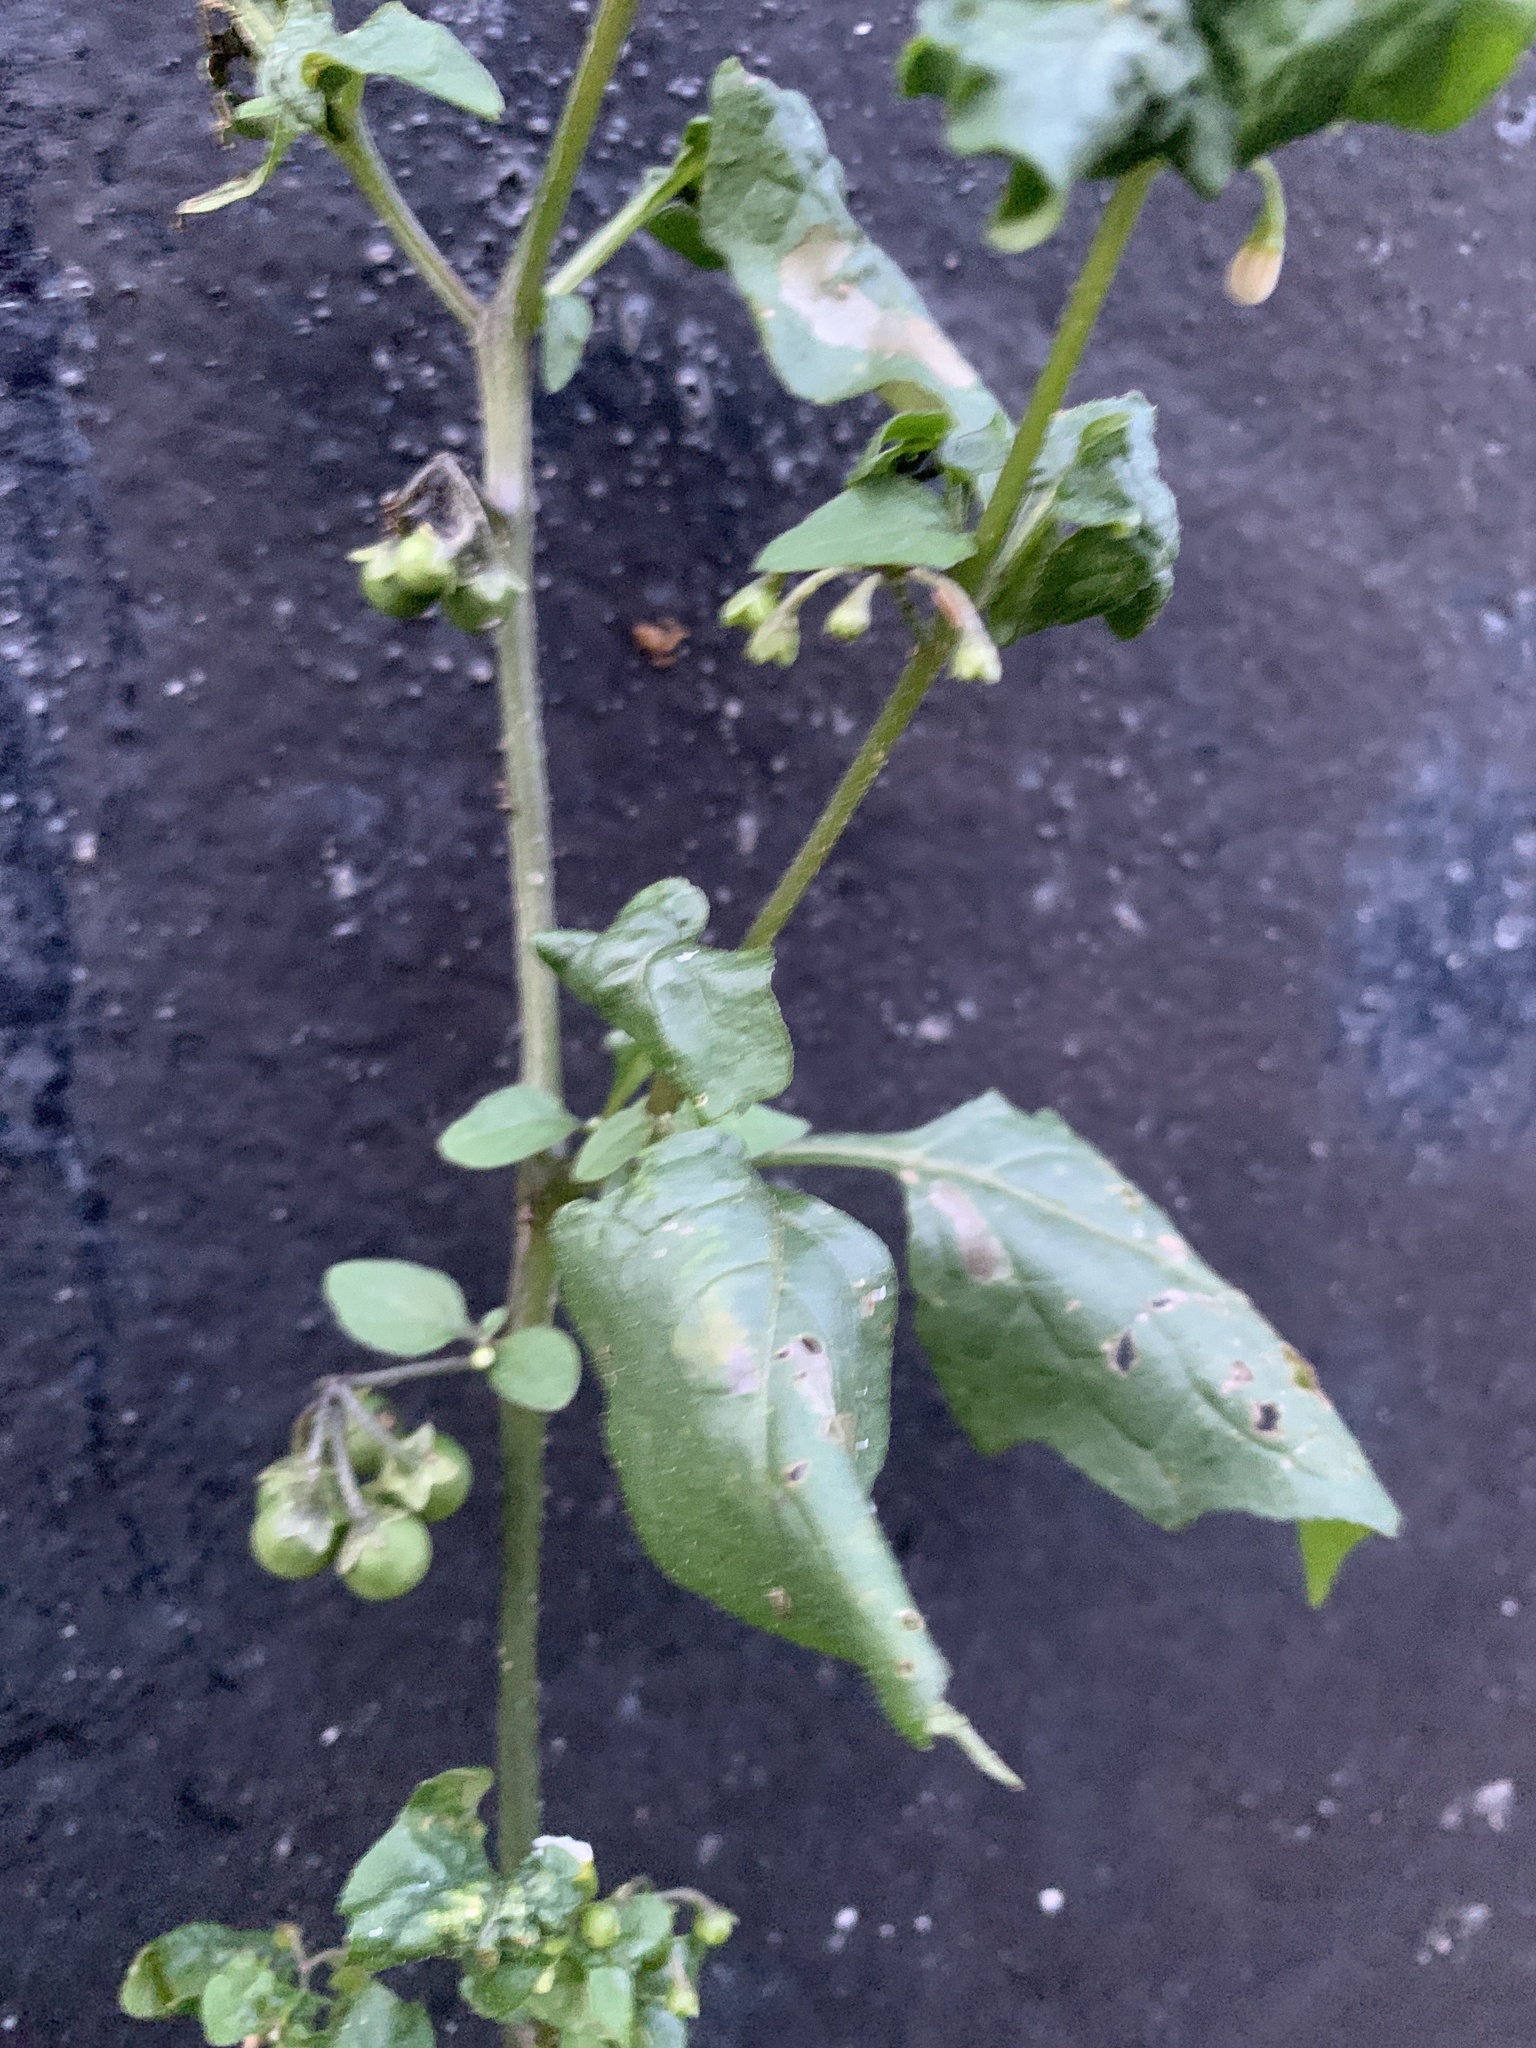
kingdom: Plantae
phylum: Tracheophyta
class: Magnoliopsida
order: Solanales
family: Solanaceae
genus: Solanum
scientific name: Solanum nigrum
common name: Black nightshade
